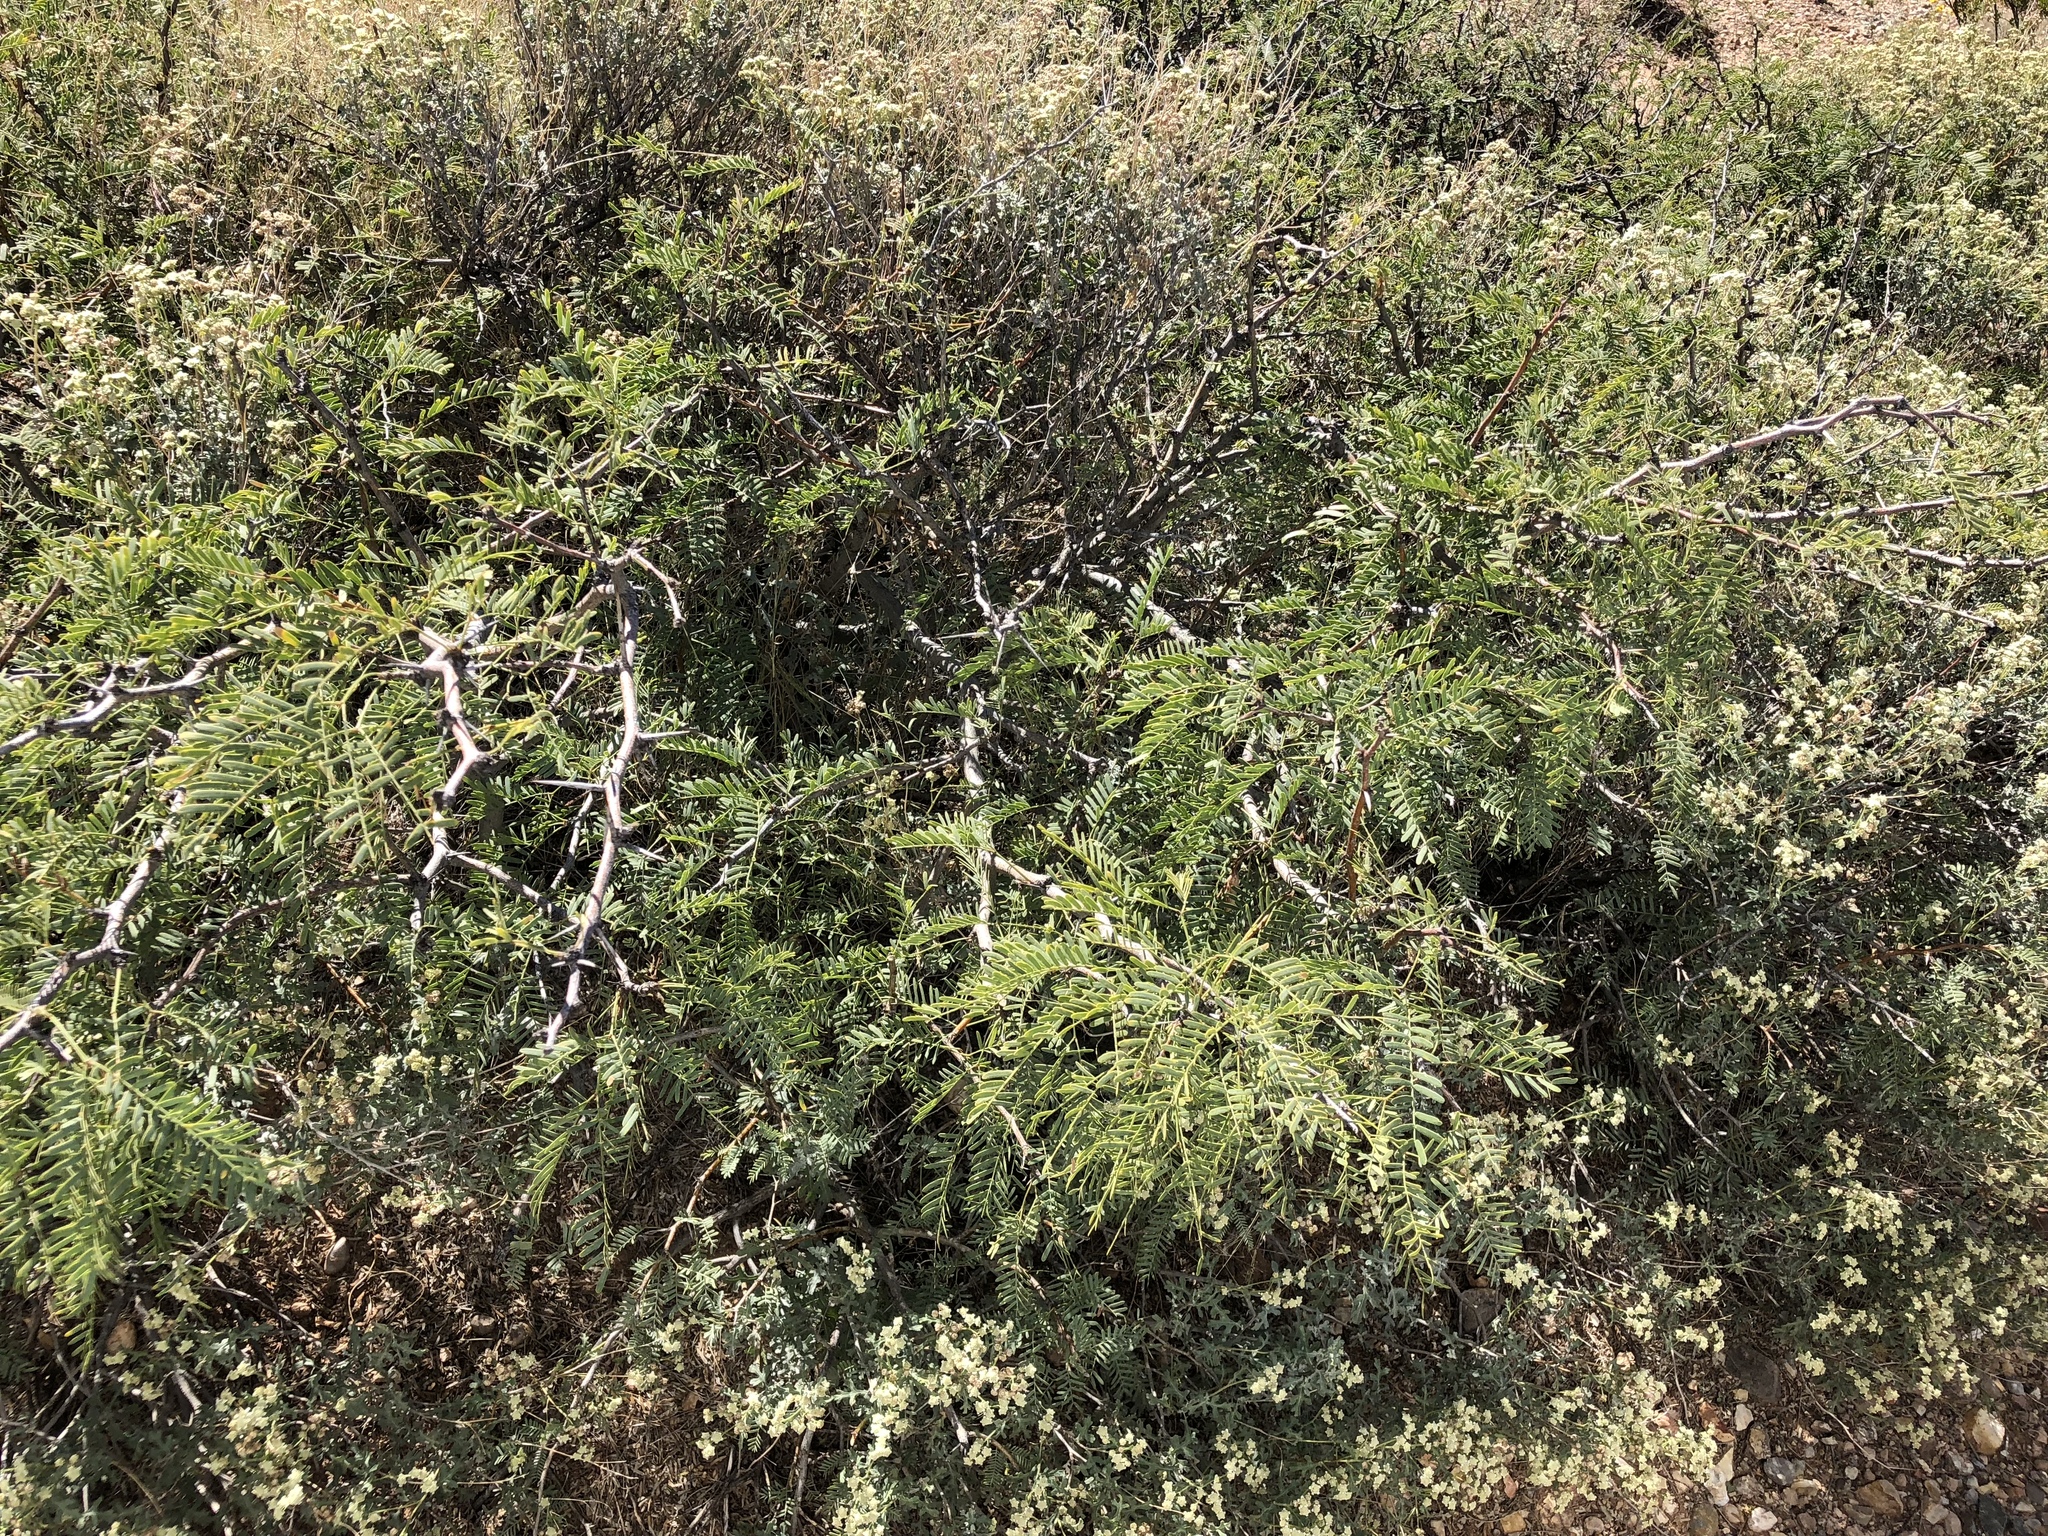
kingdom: Plantae
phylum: Tracheophyta
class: Magnoliopsida
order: Fabales
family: Fabaceae
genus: Prosopis
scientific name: Prosopis glandulosa
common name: Honey mesquite
